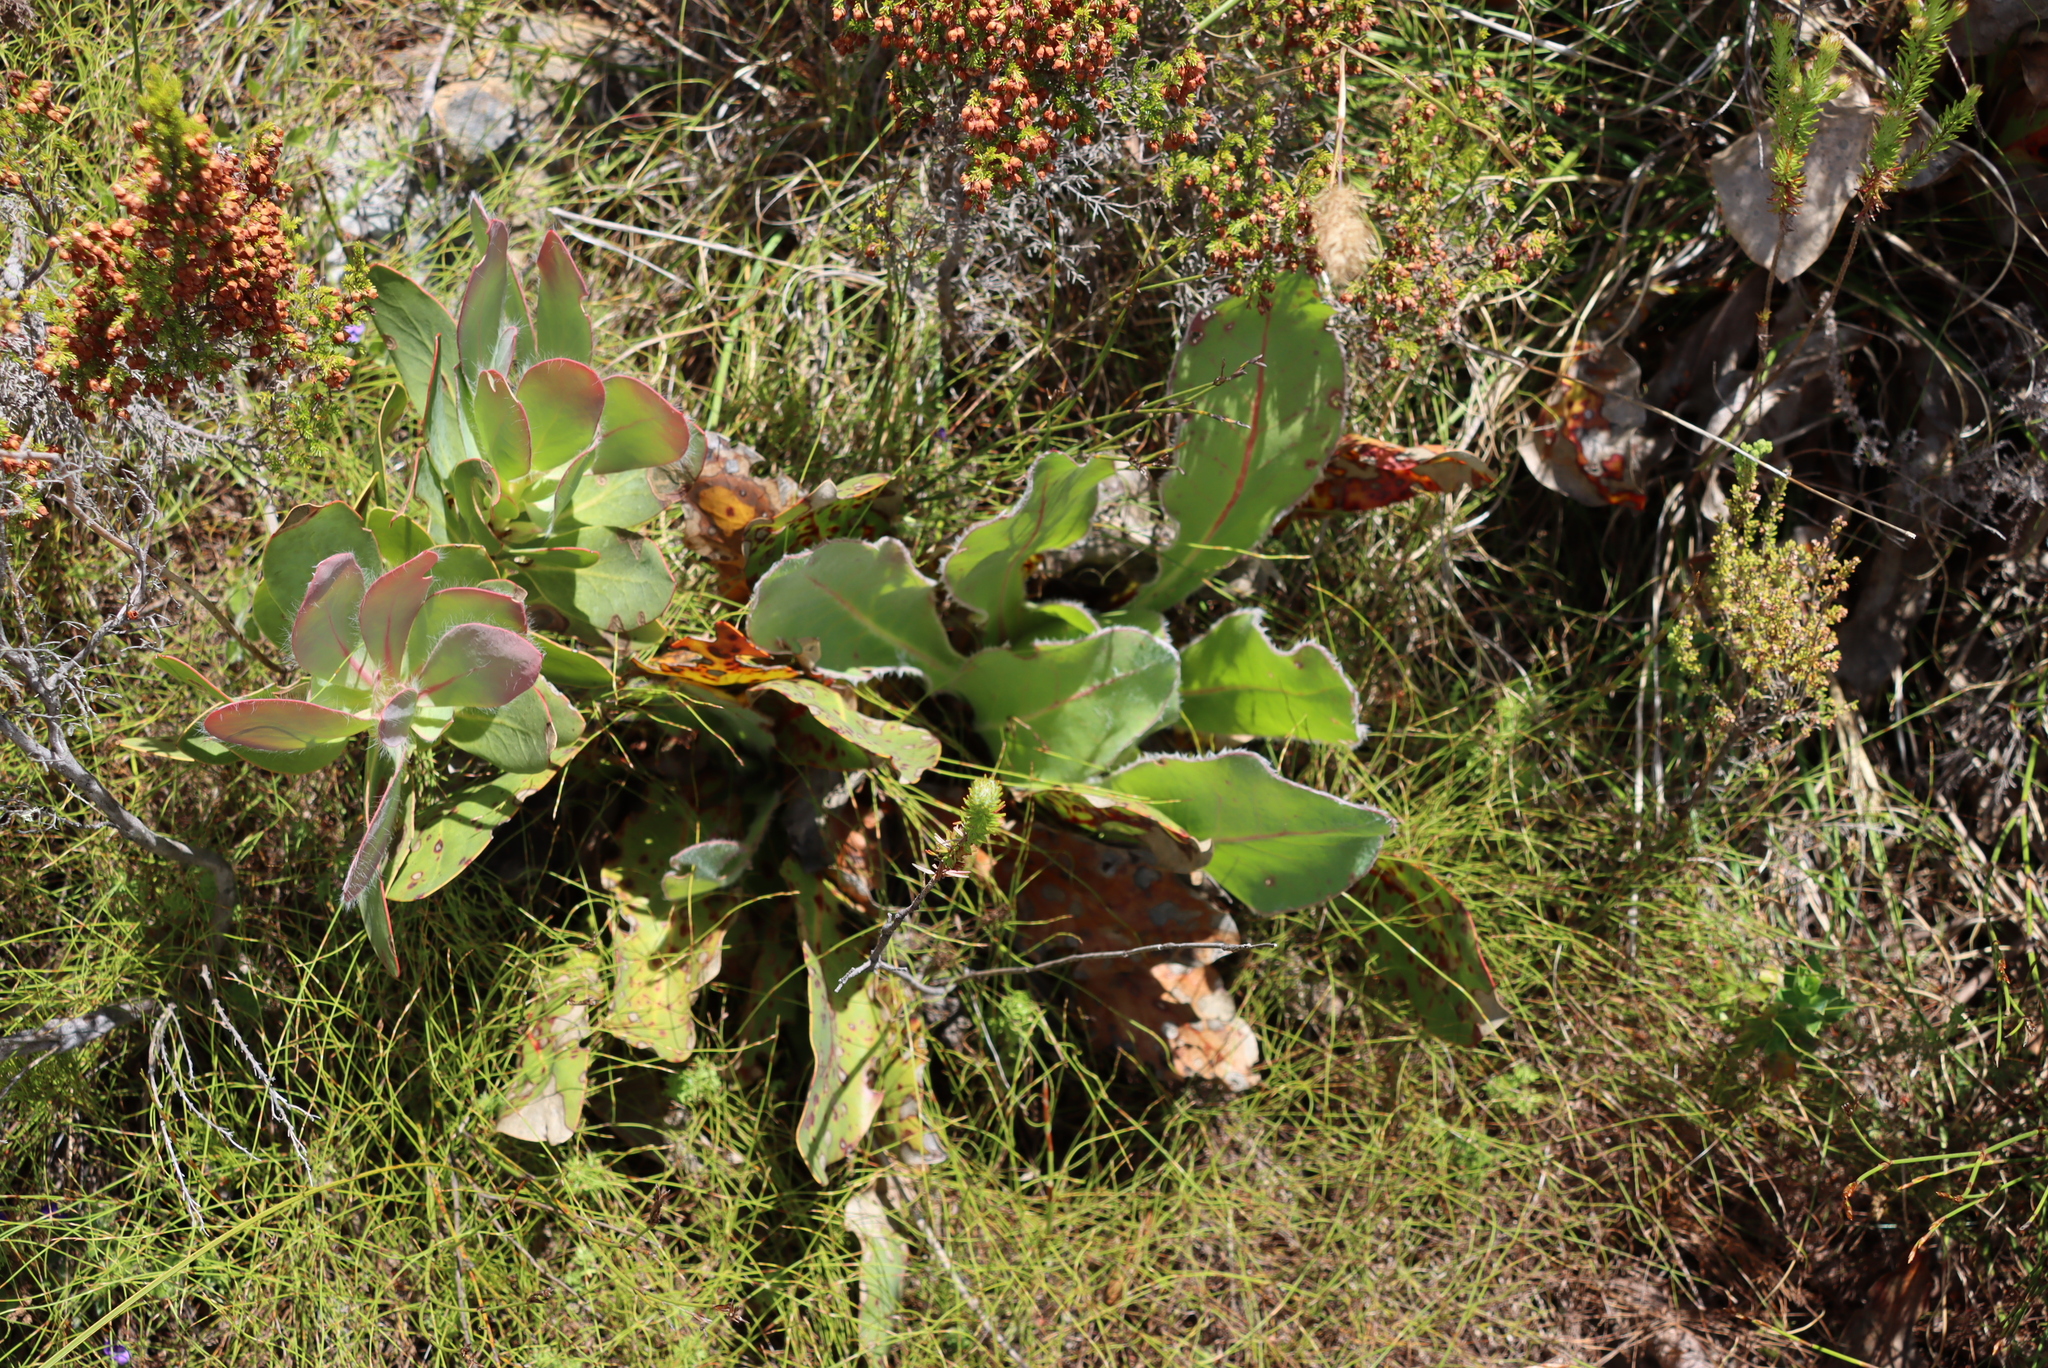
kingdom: Plantae
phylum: Tracheophyta
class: Magnoliopsida
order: Proteales
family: Proteaceae
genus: Protea
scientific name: Protea caespitosa
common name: Bishop sugarbush
